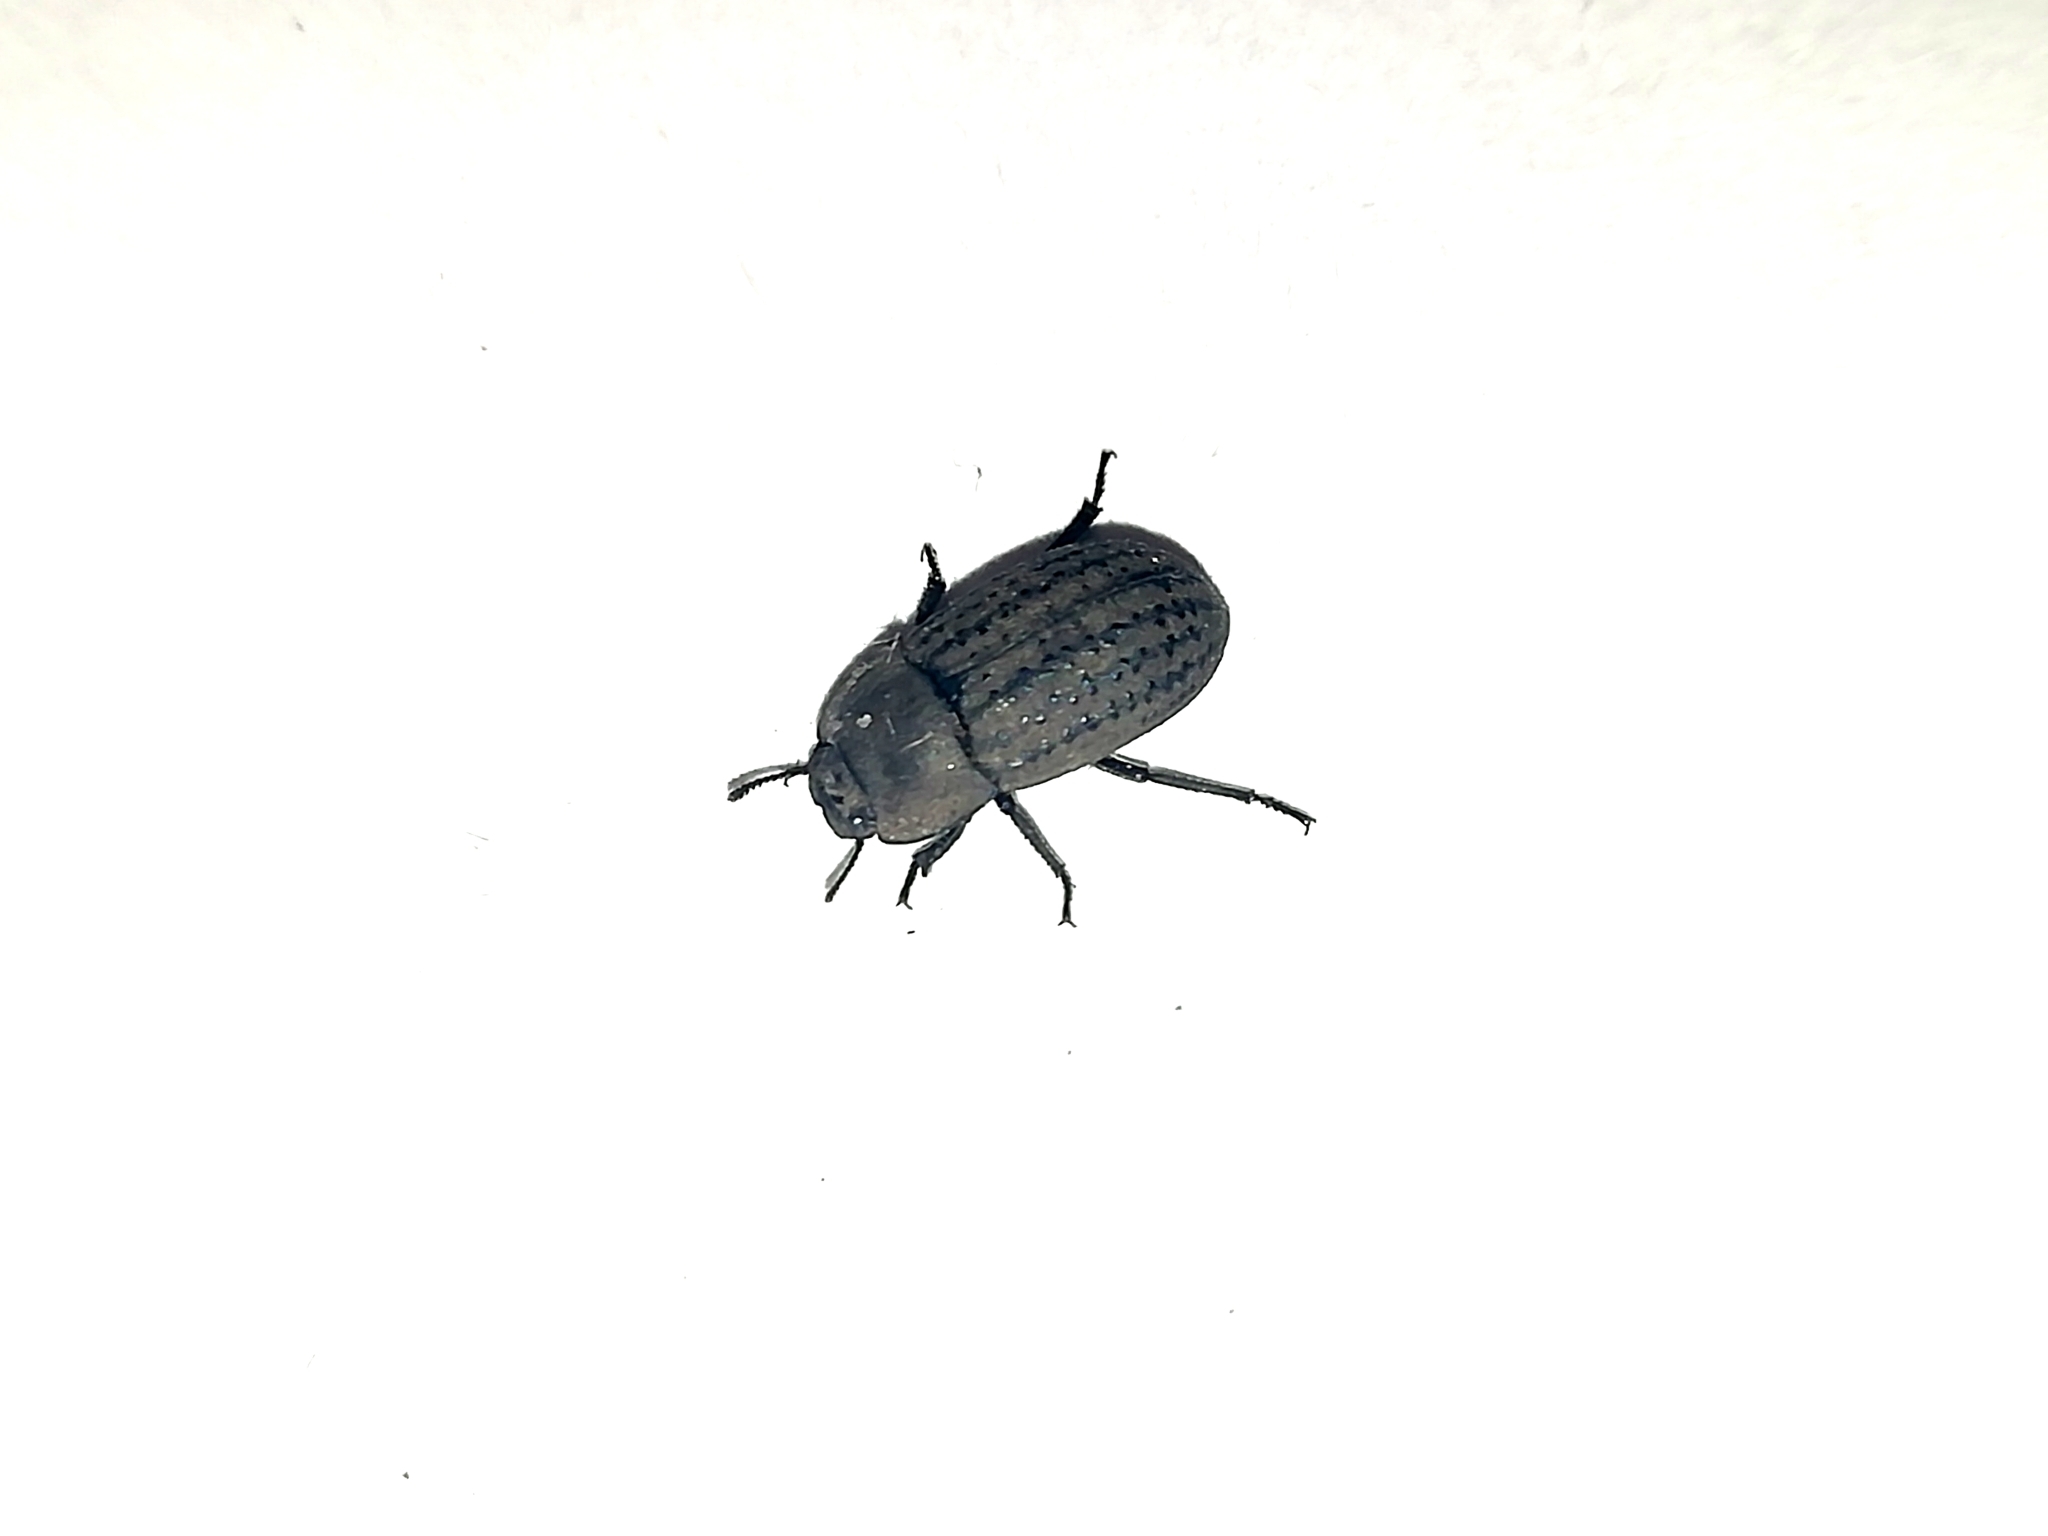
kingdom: Animalia
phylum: Arthropoda
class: Insecta
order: Coleoptera
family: Tenebrionidae
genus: Opatrum
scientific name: Opatrum sabulosum
